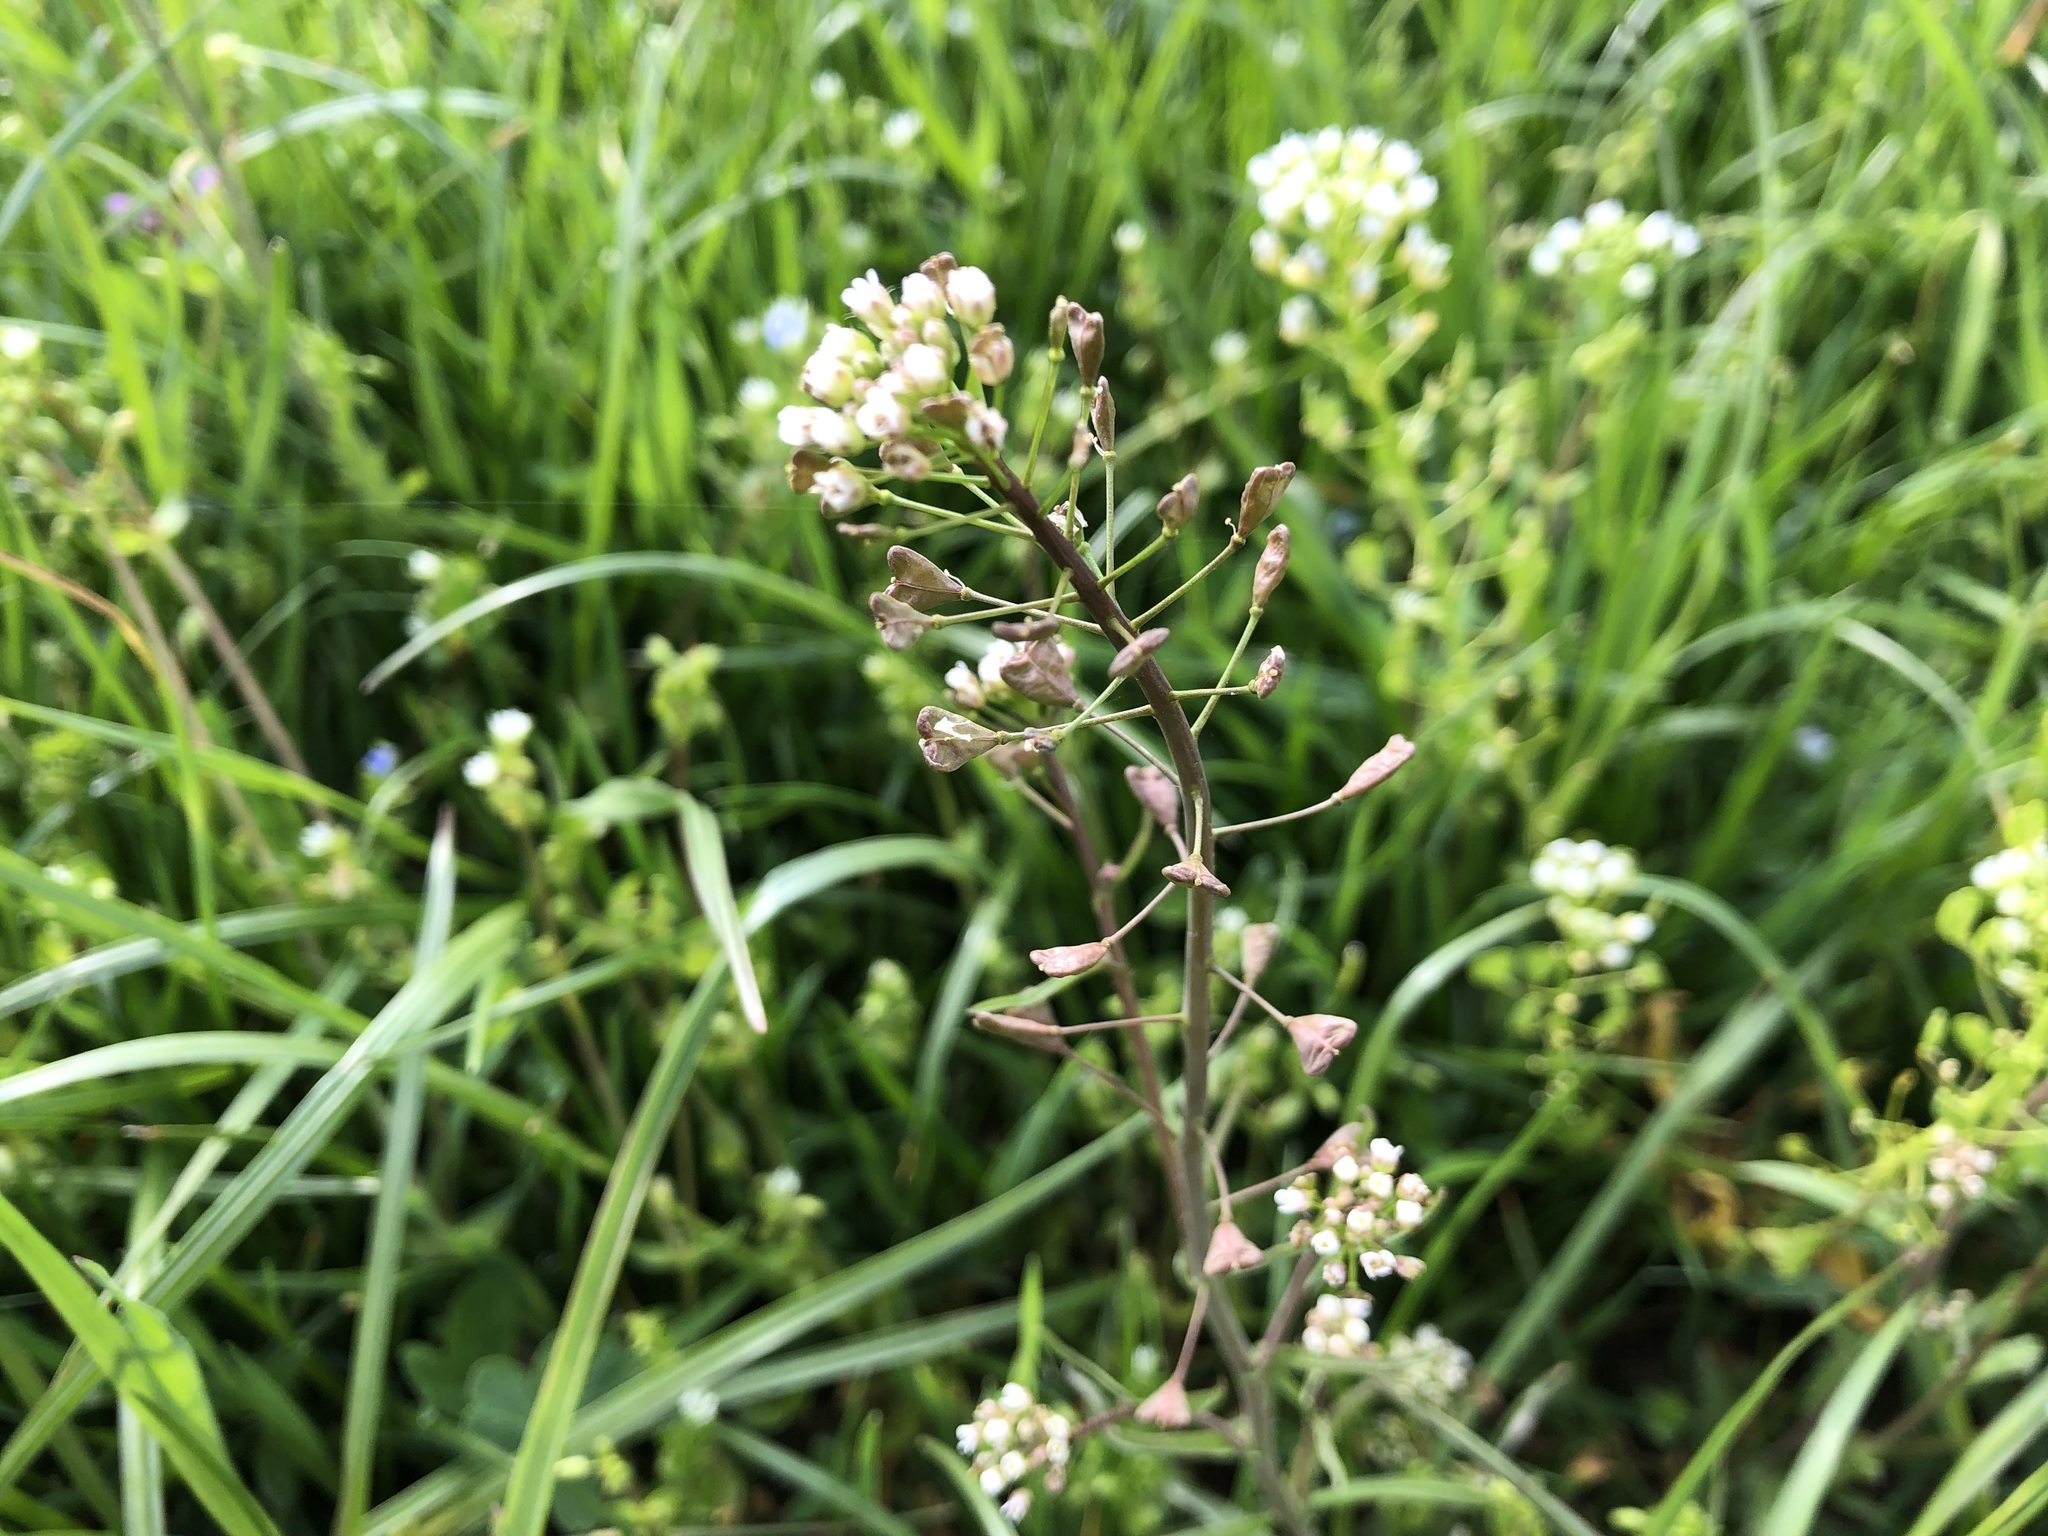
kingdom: Plantae
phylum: Tracheophyta
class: Magnoliopsida
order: Brassicales
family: Brassicaceae
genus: Capsella
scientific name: Capsella bursa-pastoris
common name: Shepherd's purse
